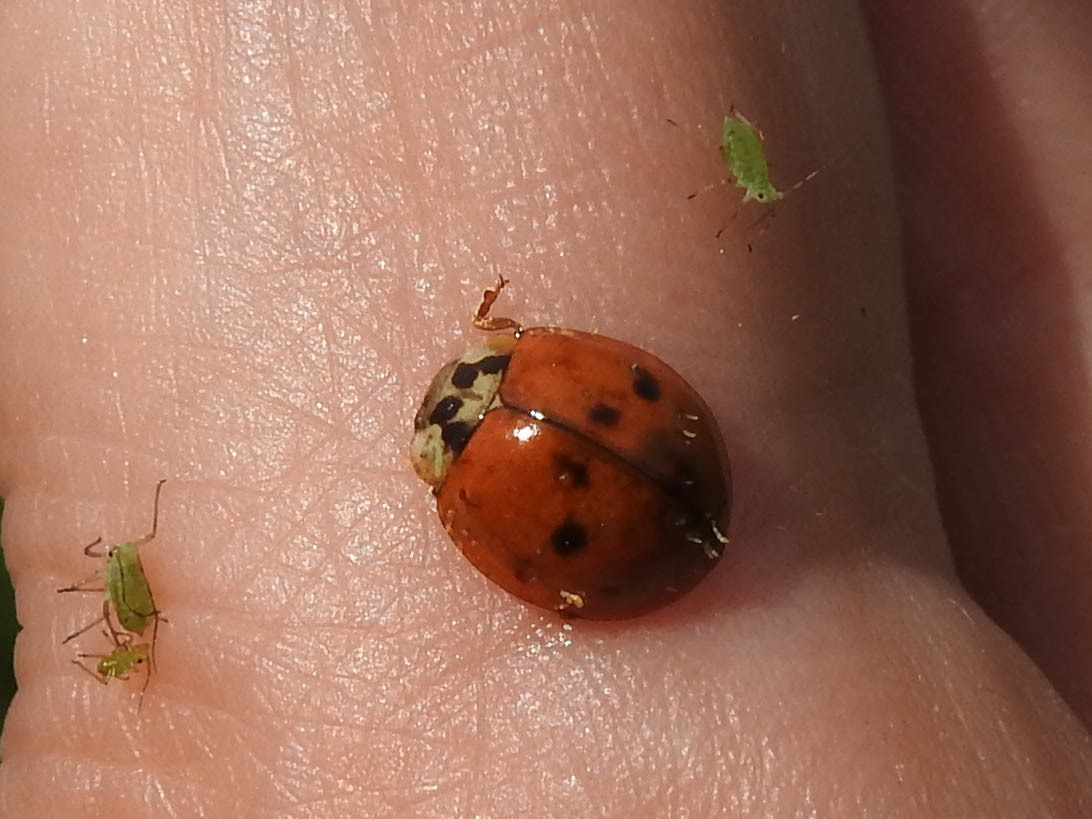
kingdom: Fungi
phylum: Ascomycota
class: Laboulbeniomycetes
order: Laboulbeniales
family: Laboulbeniaceae
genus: Hesperomyces
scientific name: Hesperomyces harmoniae
